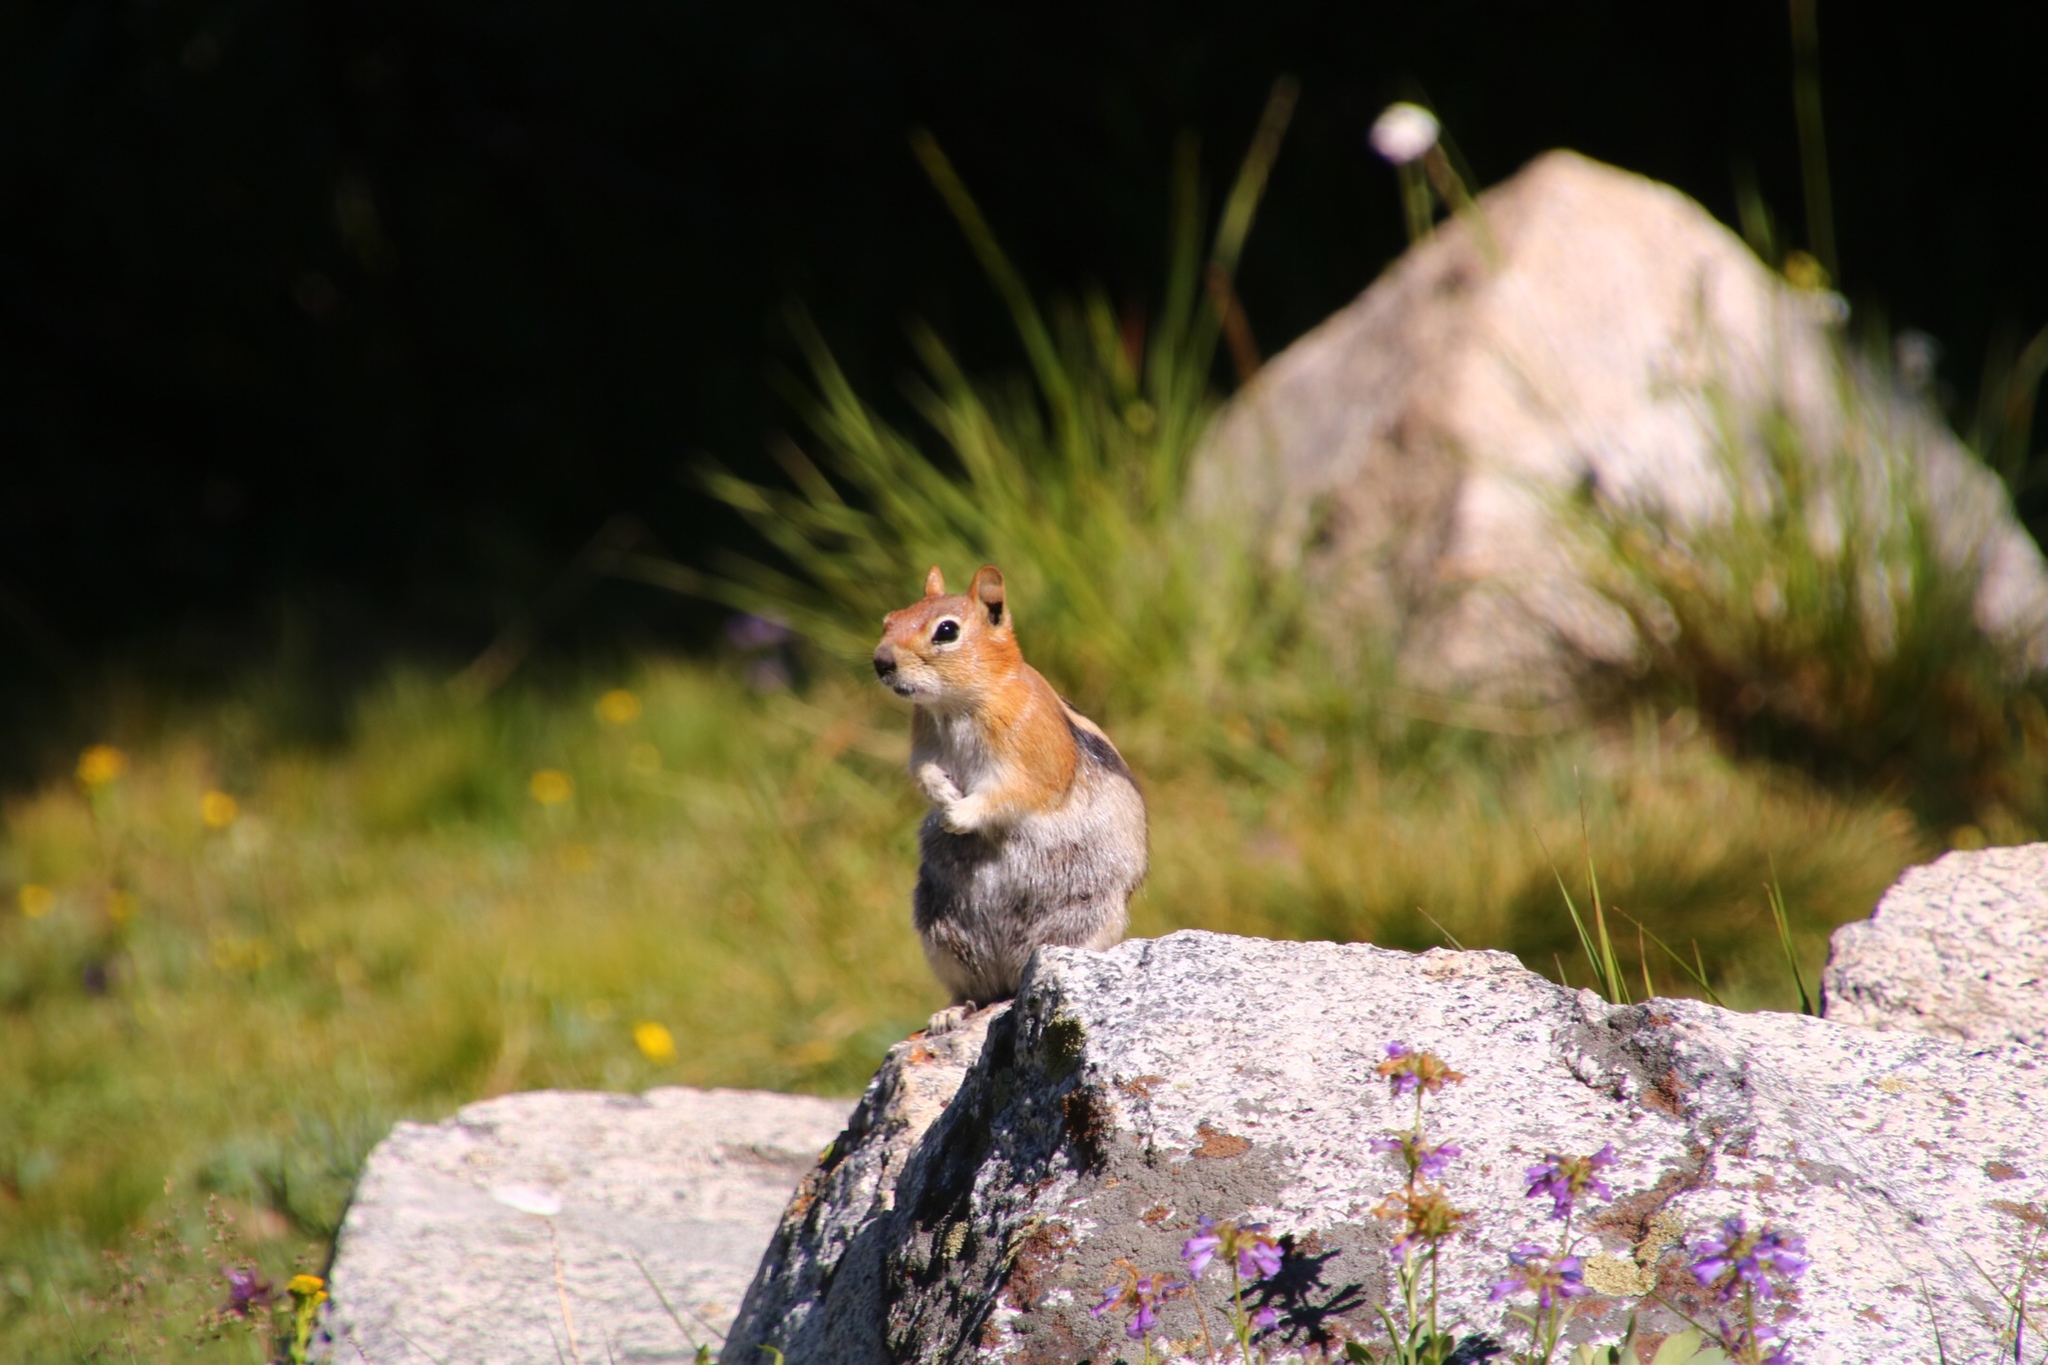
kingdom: Animalia
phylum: Chordata
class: Mammalia
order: Rodentia
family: Sciuridae
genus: Callospermophilus
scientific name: Callospermophilus lateralis
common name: Golden-mantled ground squirrel
